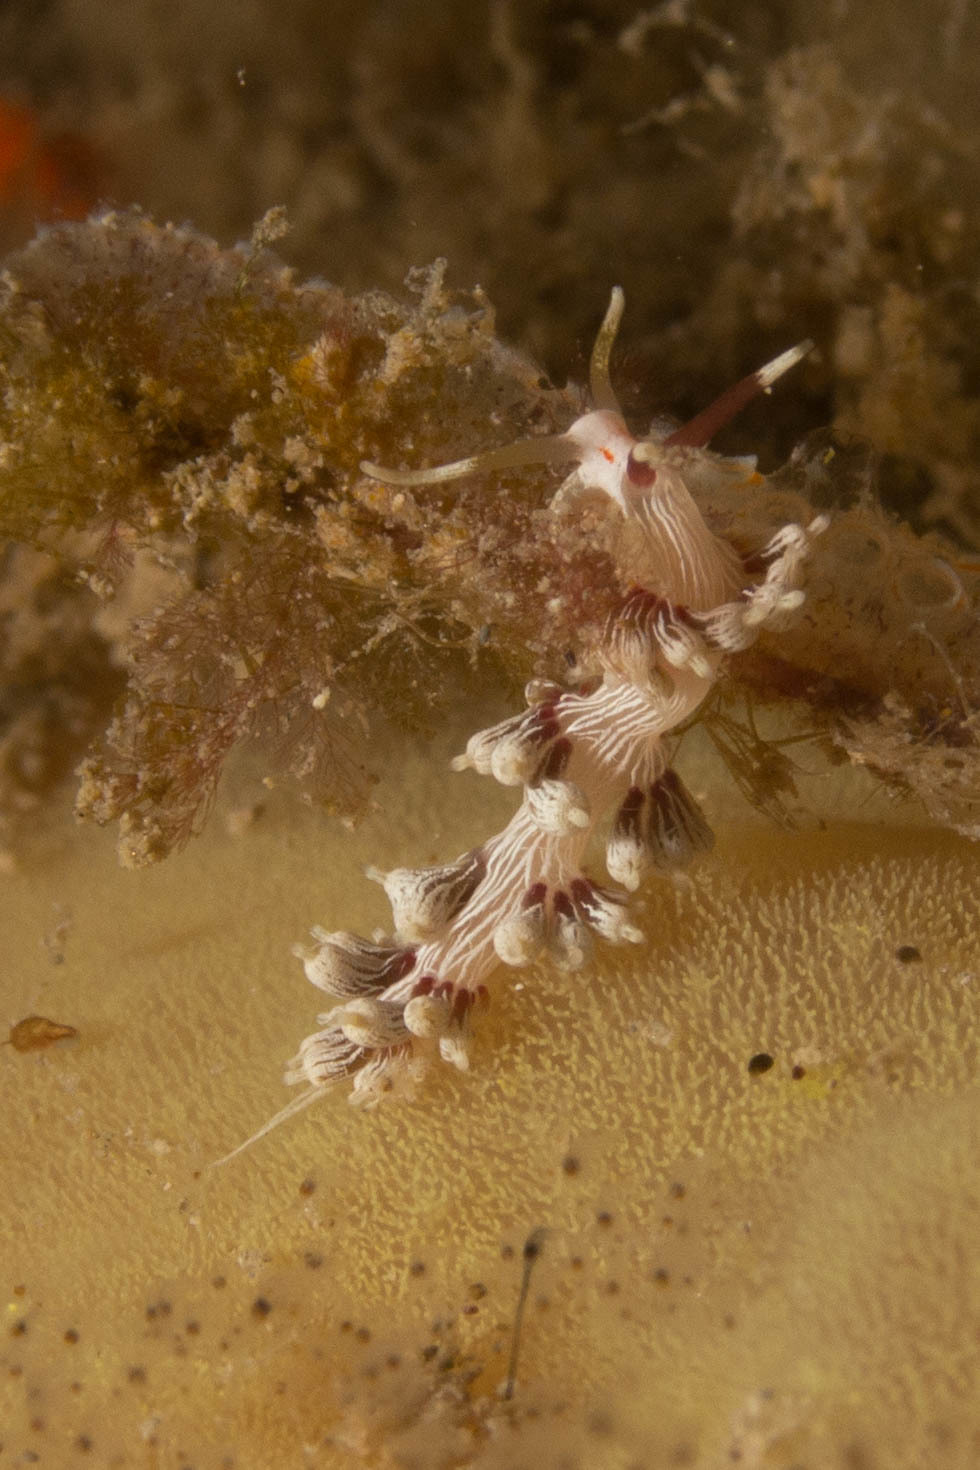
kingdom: Animalia
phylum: Mollusca
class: Gastropoda
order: Nudibranchia
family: Facelinidae
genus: Cratena
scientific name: Cratena lineata
